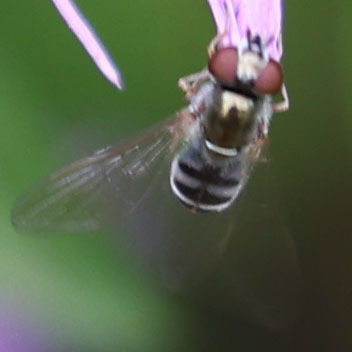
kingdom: Animalia
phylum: Arthropoda
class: Insecta
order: Diptera
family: Syrphidae
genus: Platycheirus
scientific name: Platycheirus
